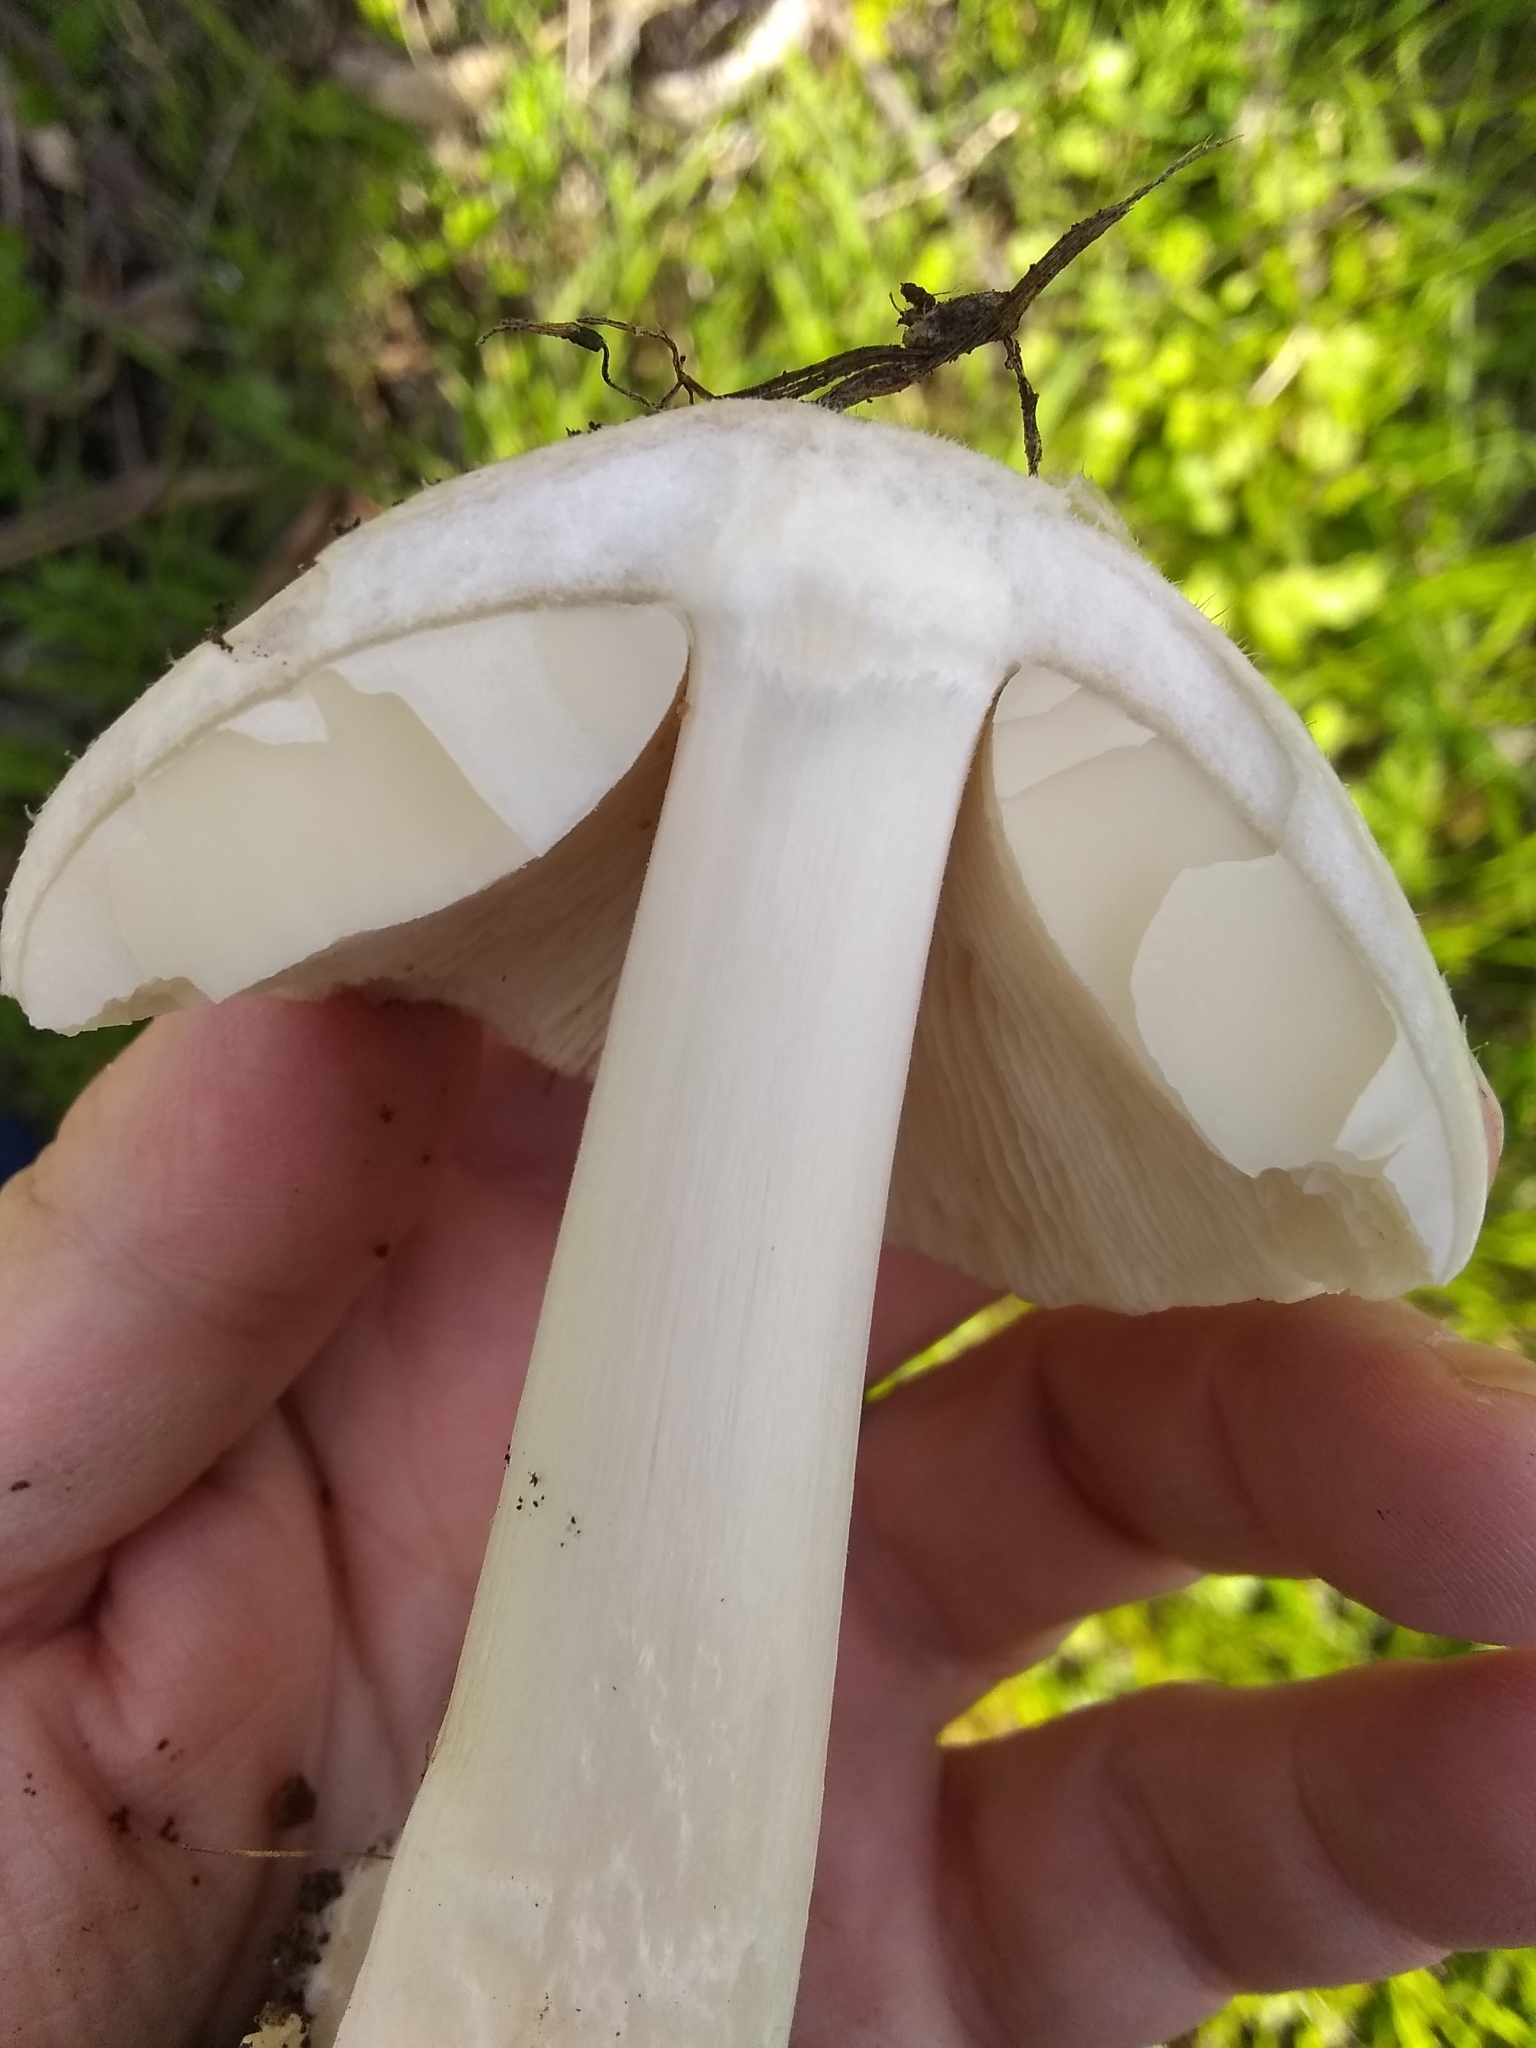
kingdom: Fungi
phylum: Basidiomycota
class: Agaricomycetes
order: Agaricales
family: Pluteaceae
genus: Volvopluteus
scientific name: Volvopluteus gloiocephalus
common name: Stubble rosegill
